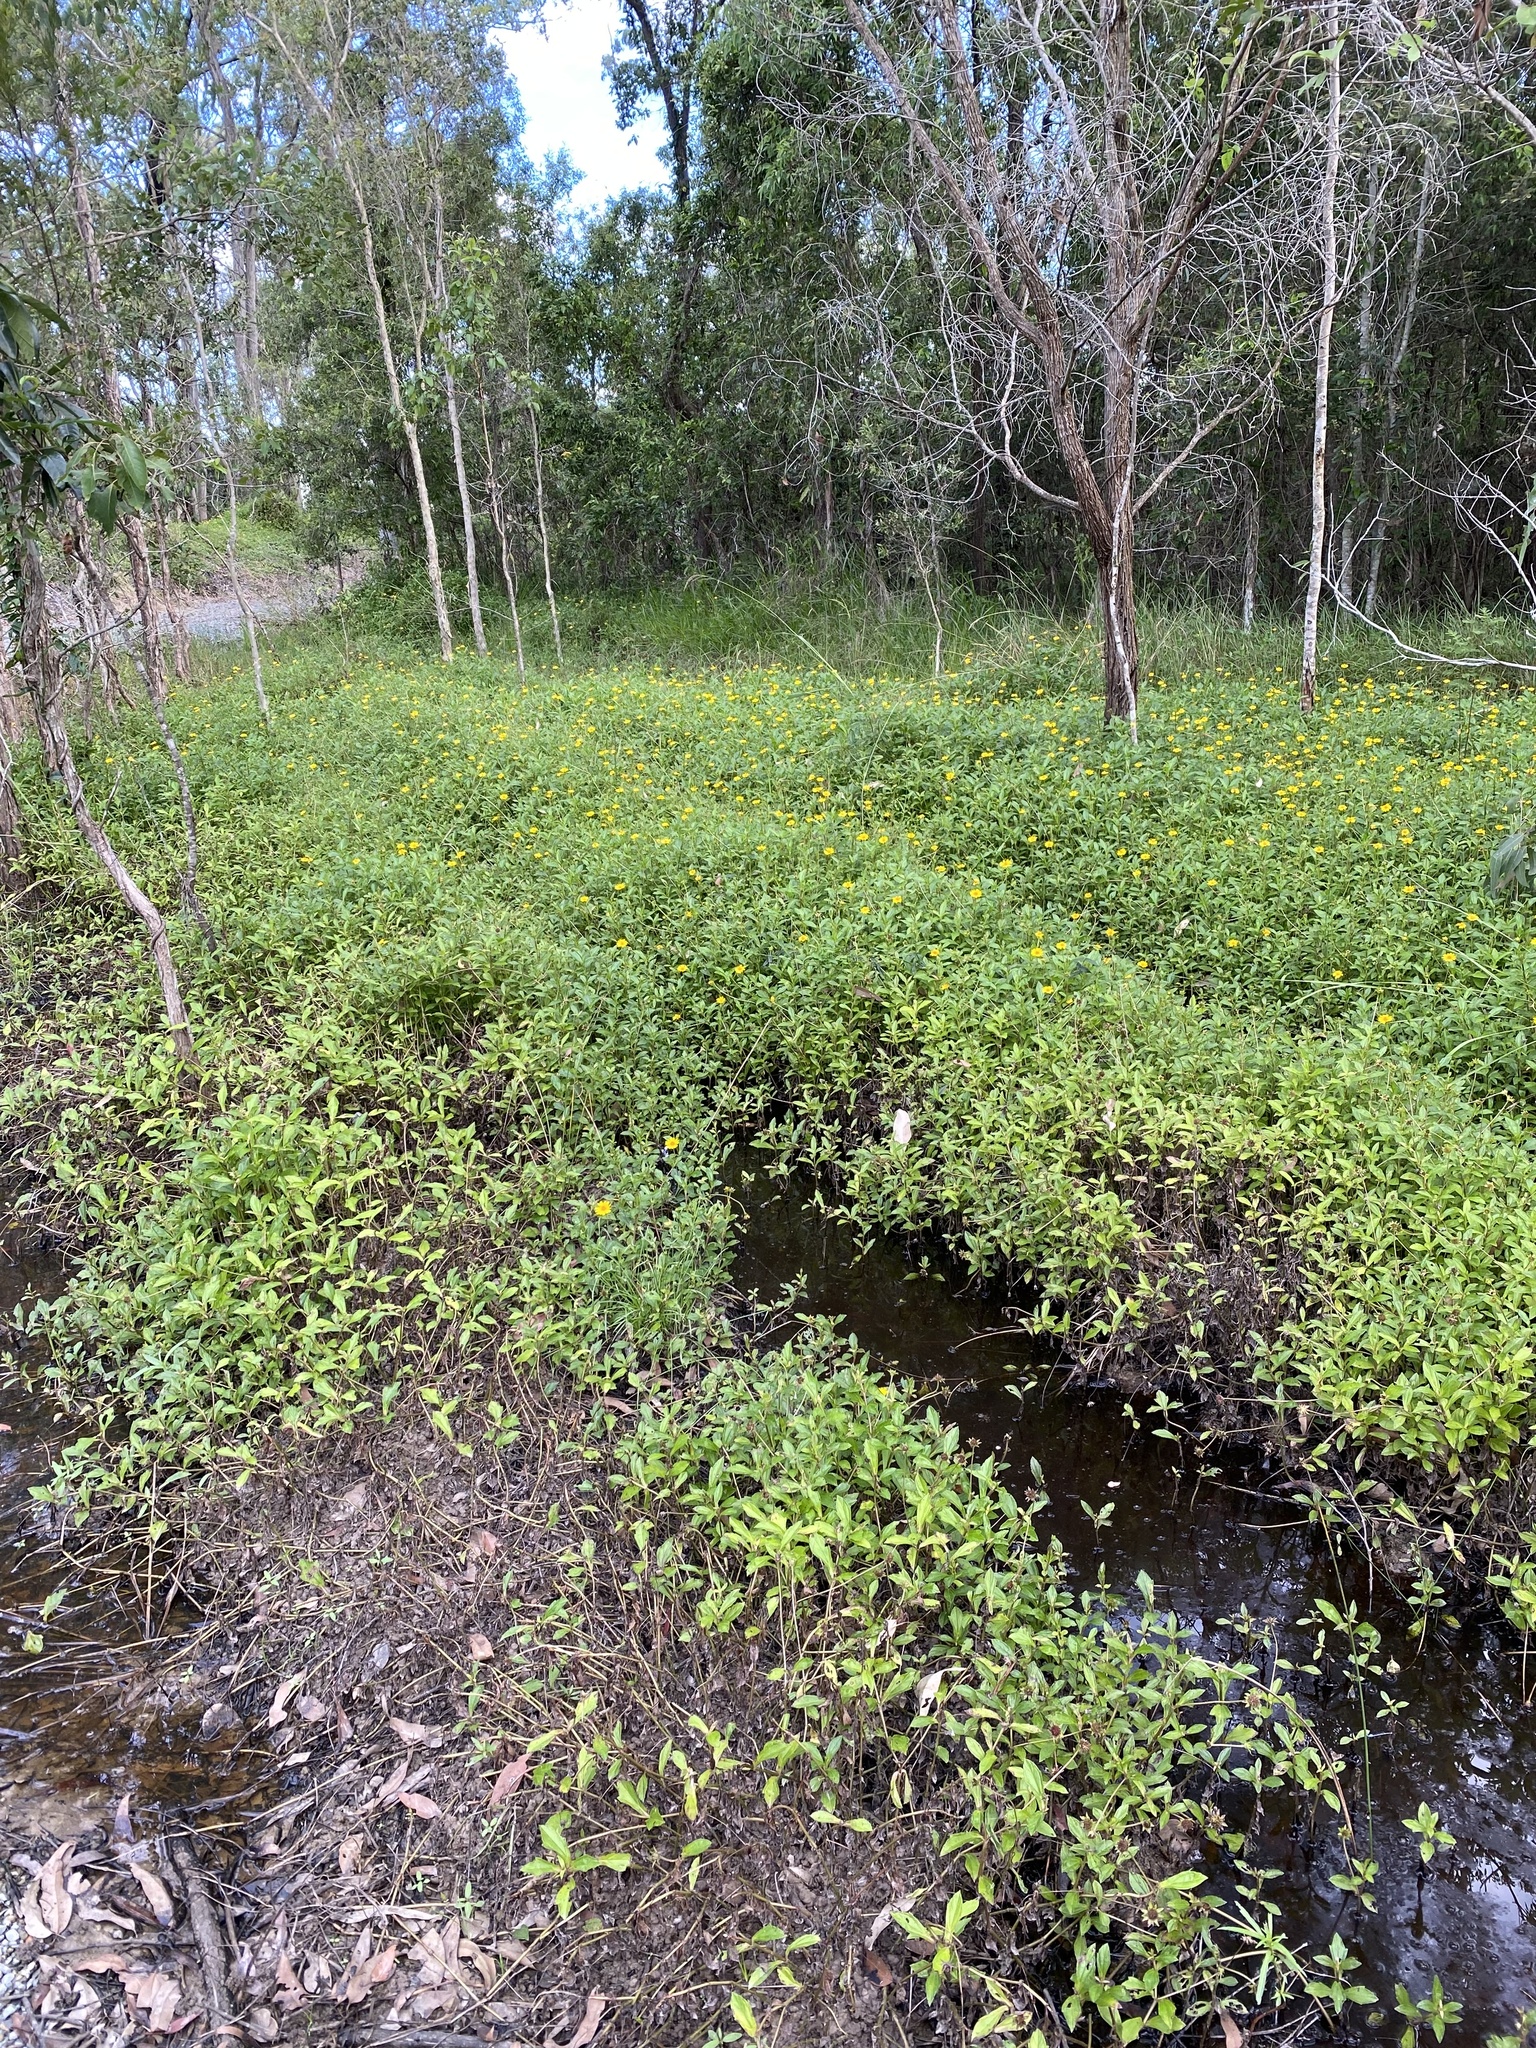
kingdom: Plantae
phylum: Tracheophyta
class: Magnoliopsida
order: Asterales
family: Asteraceae
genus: Sphagneticola
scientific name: Sphagneticola trilobata
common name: Bay biscayne creeping-oxeye
